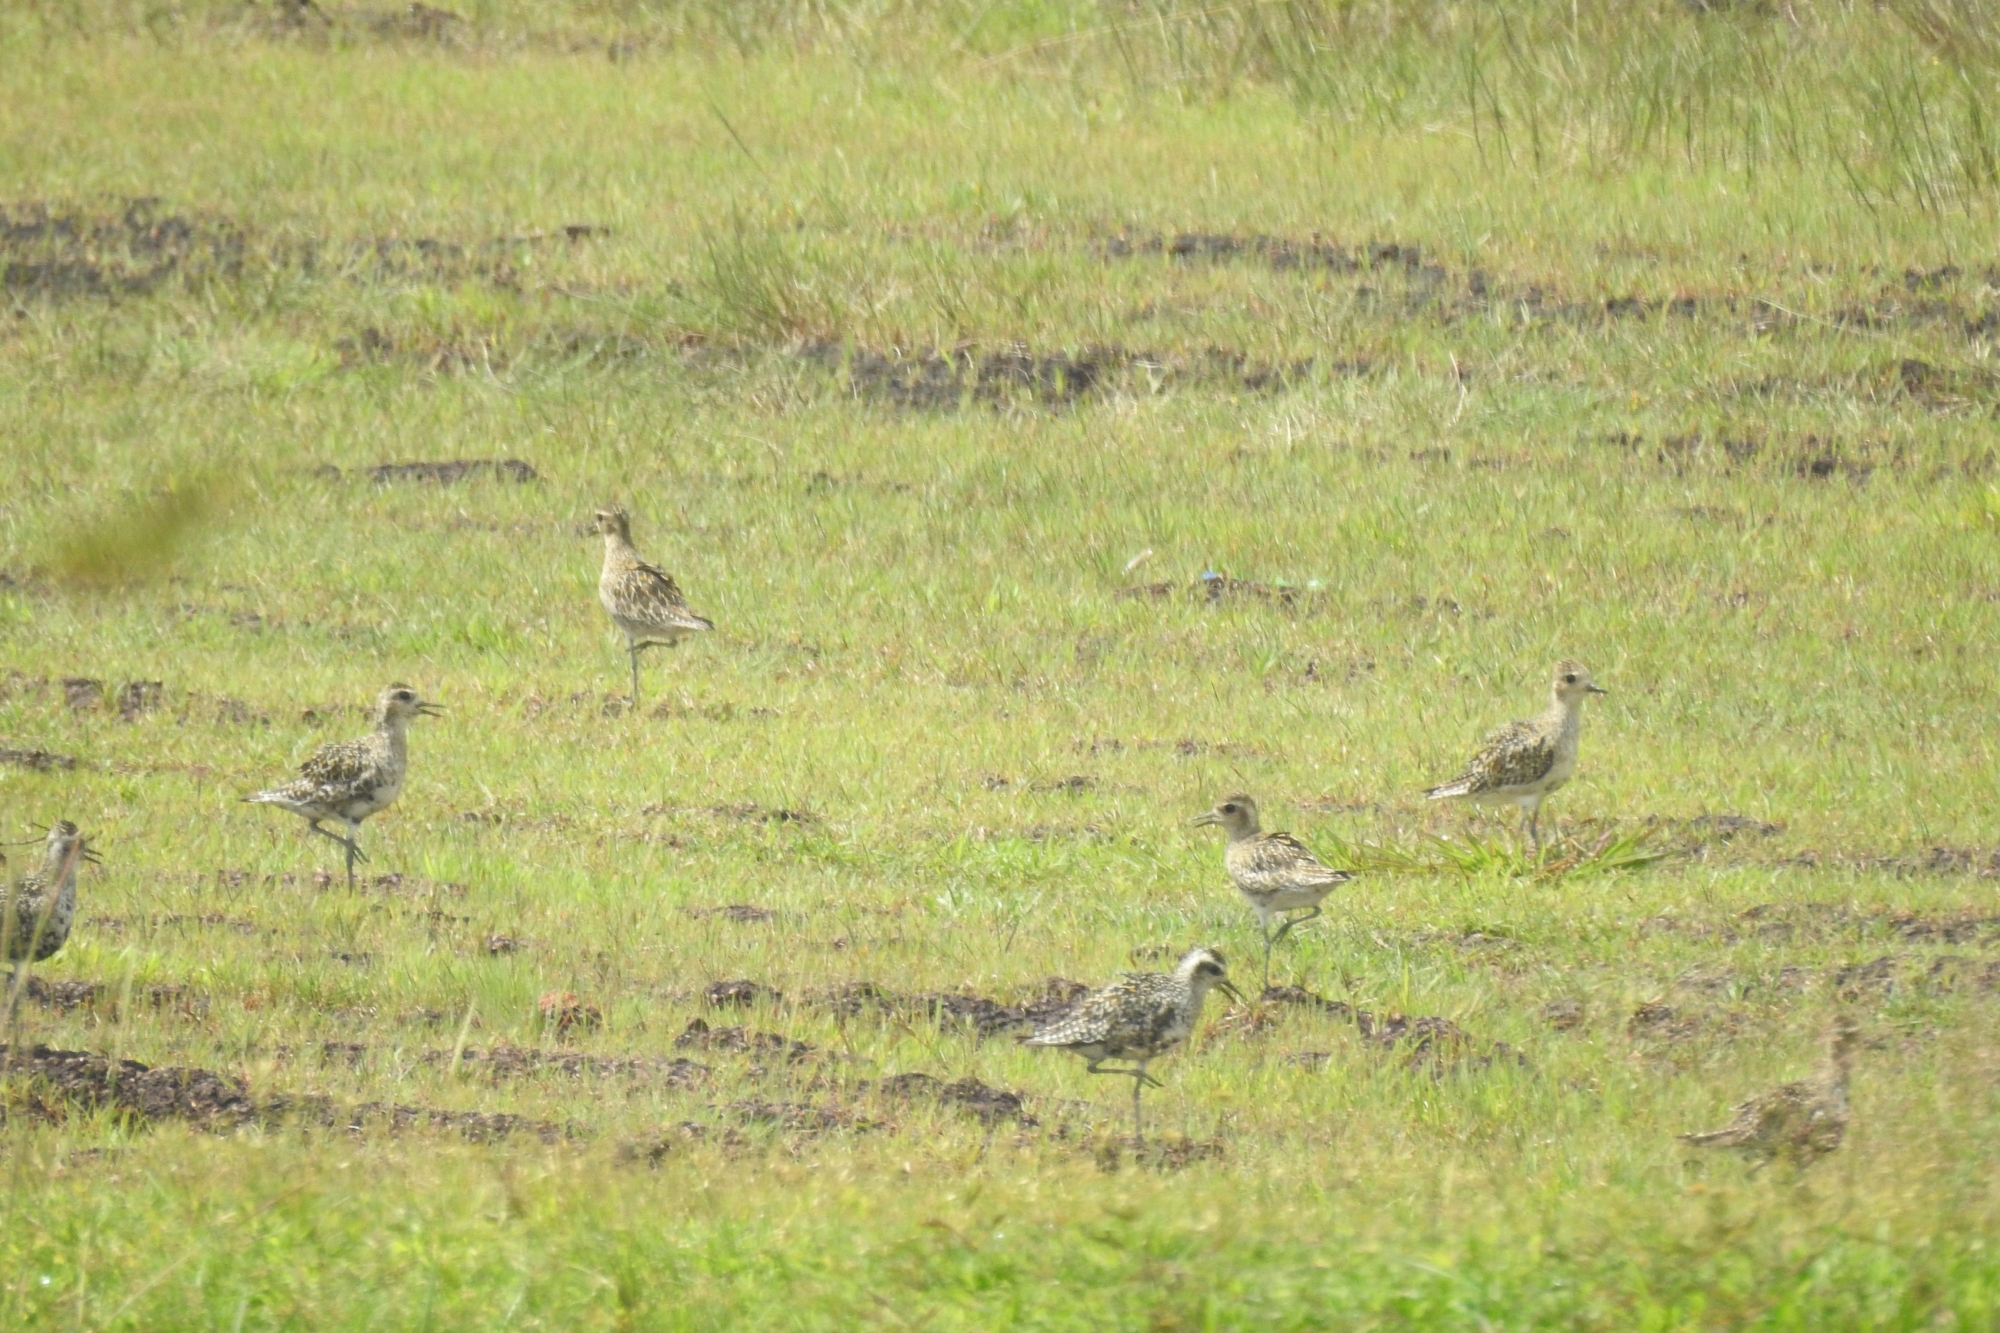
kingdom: Animalia
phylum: Chordata
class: Aves
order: Charadriiformes
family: Charadriidae
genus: Pluvialis
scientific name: Pluvialis fulva
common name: Pacific golden plover
